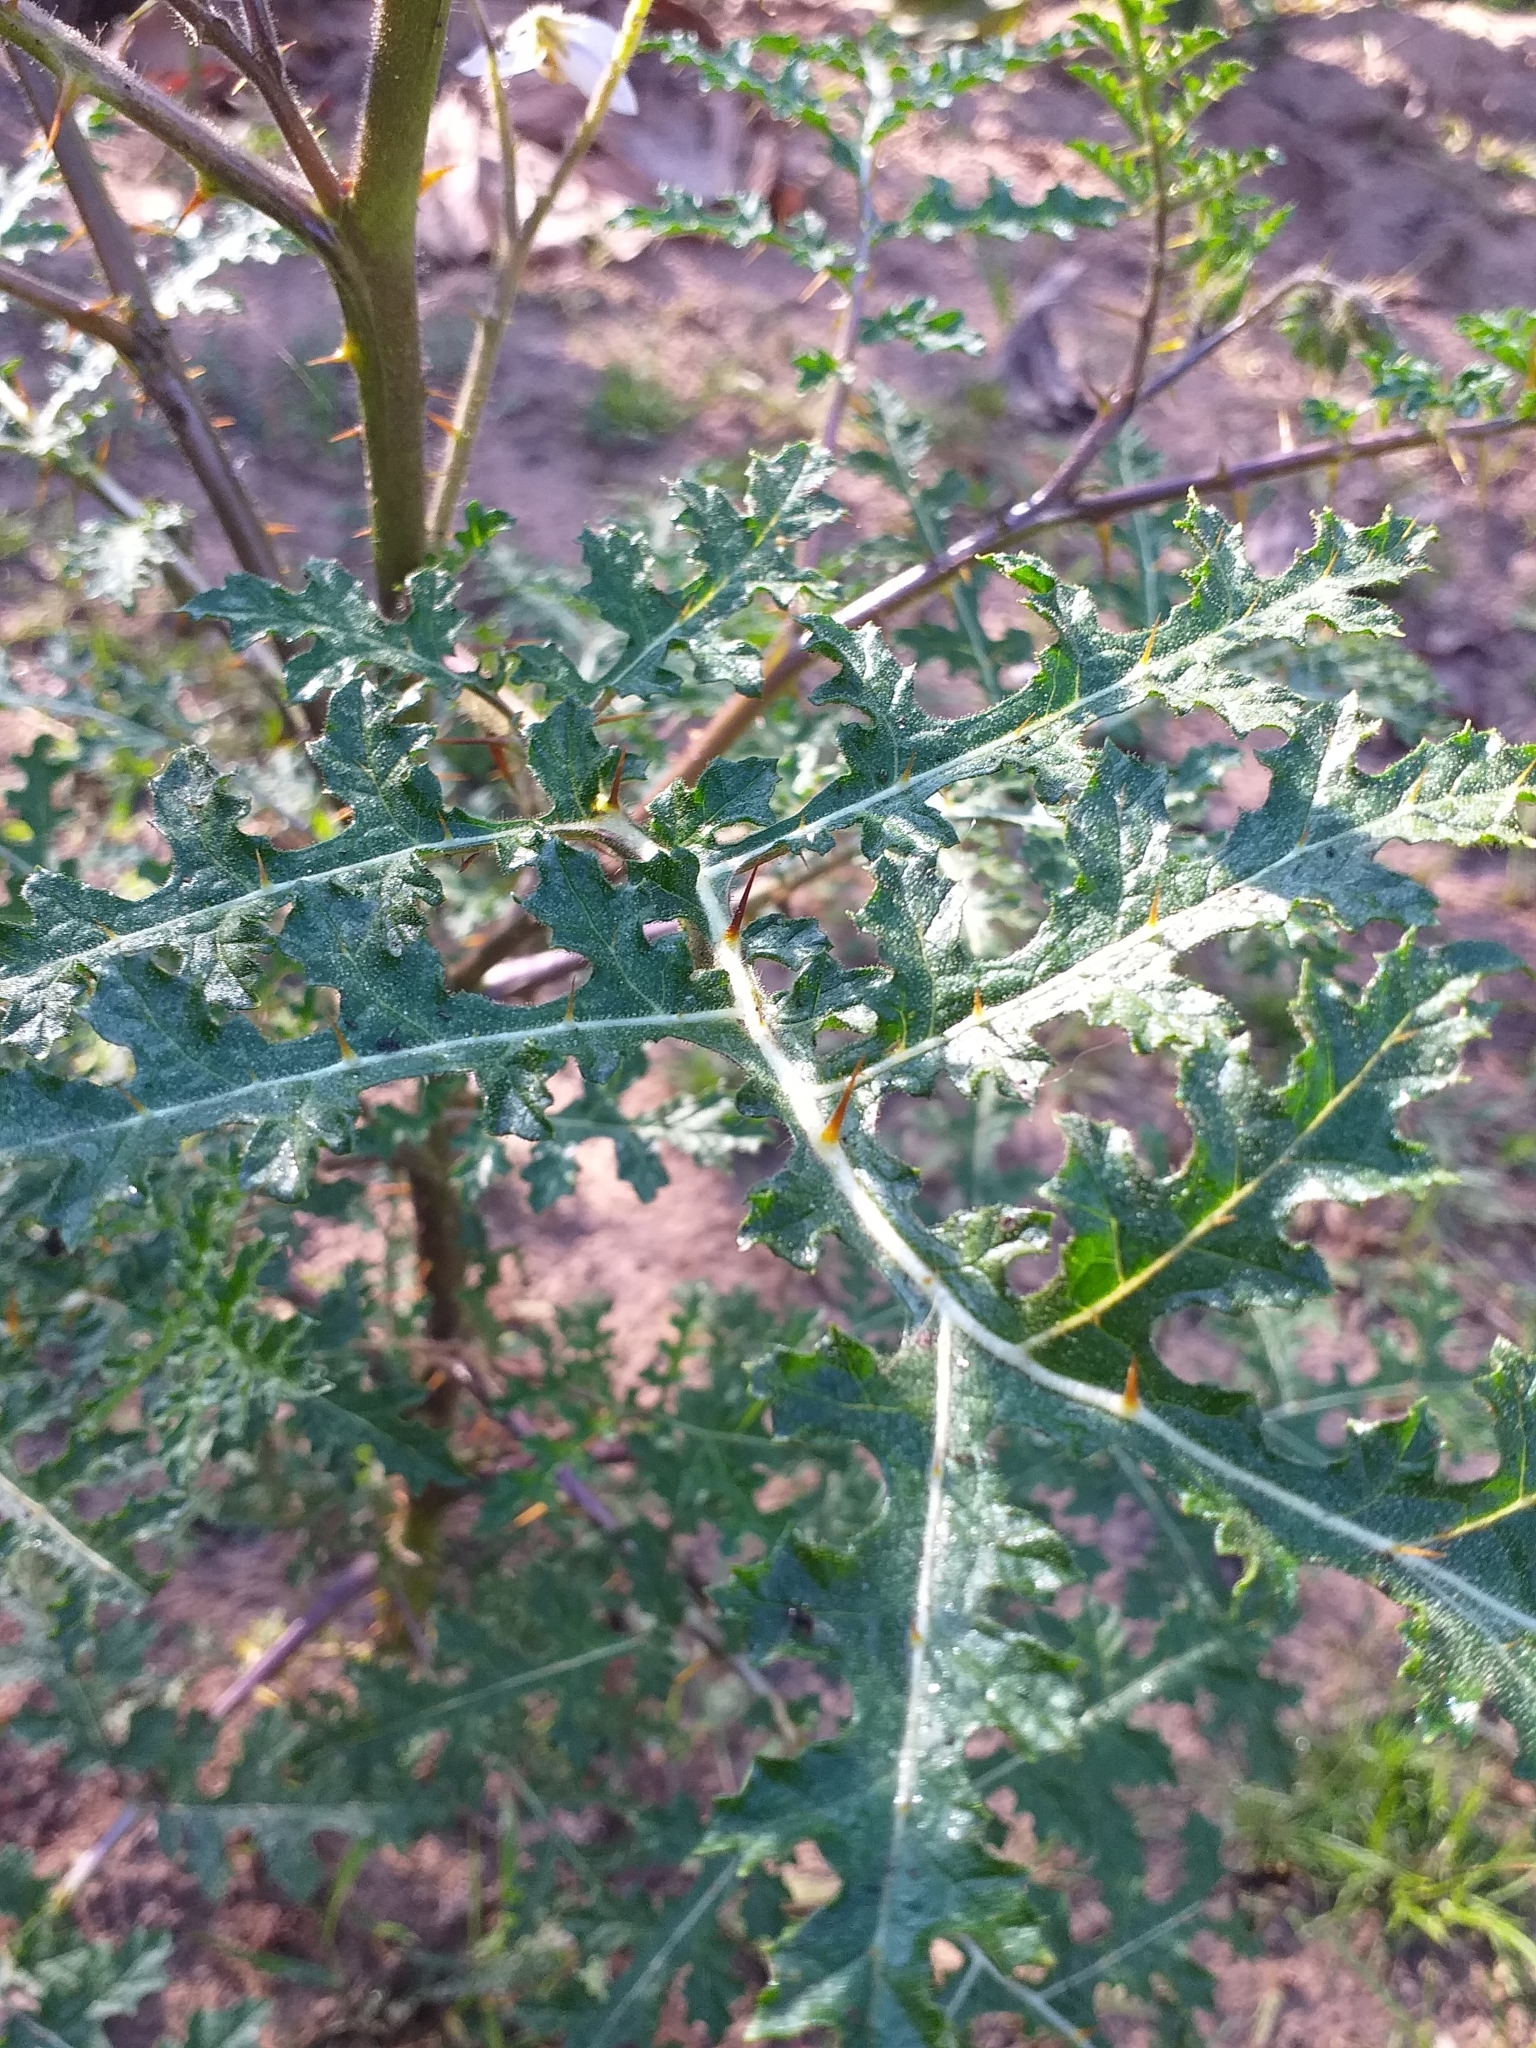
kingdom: Plantae
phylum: Tracheophyta
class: Magnoliopsida
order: Solanales
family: Solanaceae
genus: Solanum
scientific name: Solanum sisymbriifolium
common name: Red buffalo-bur
